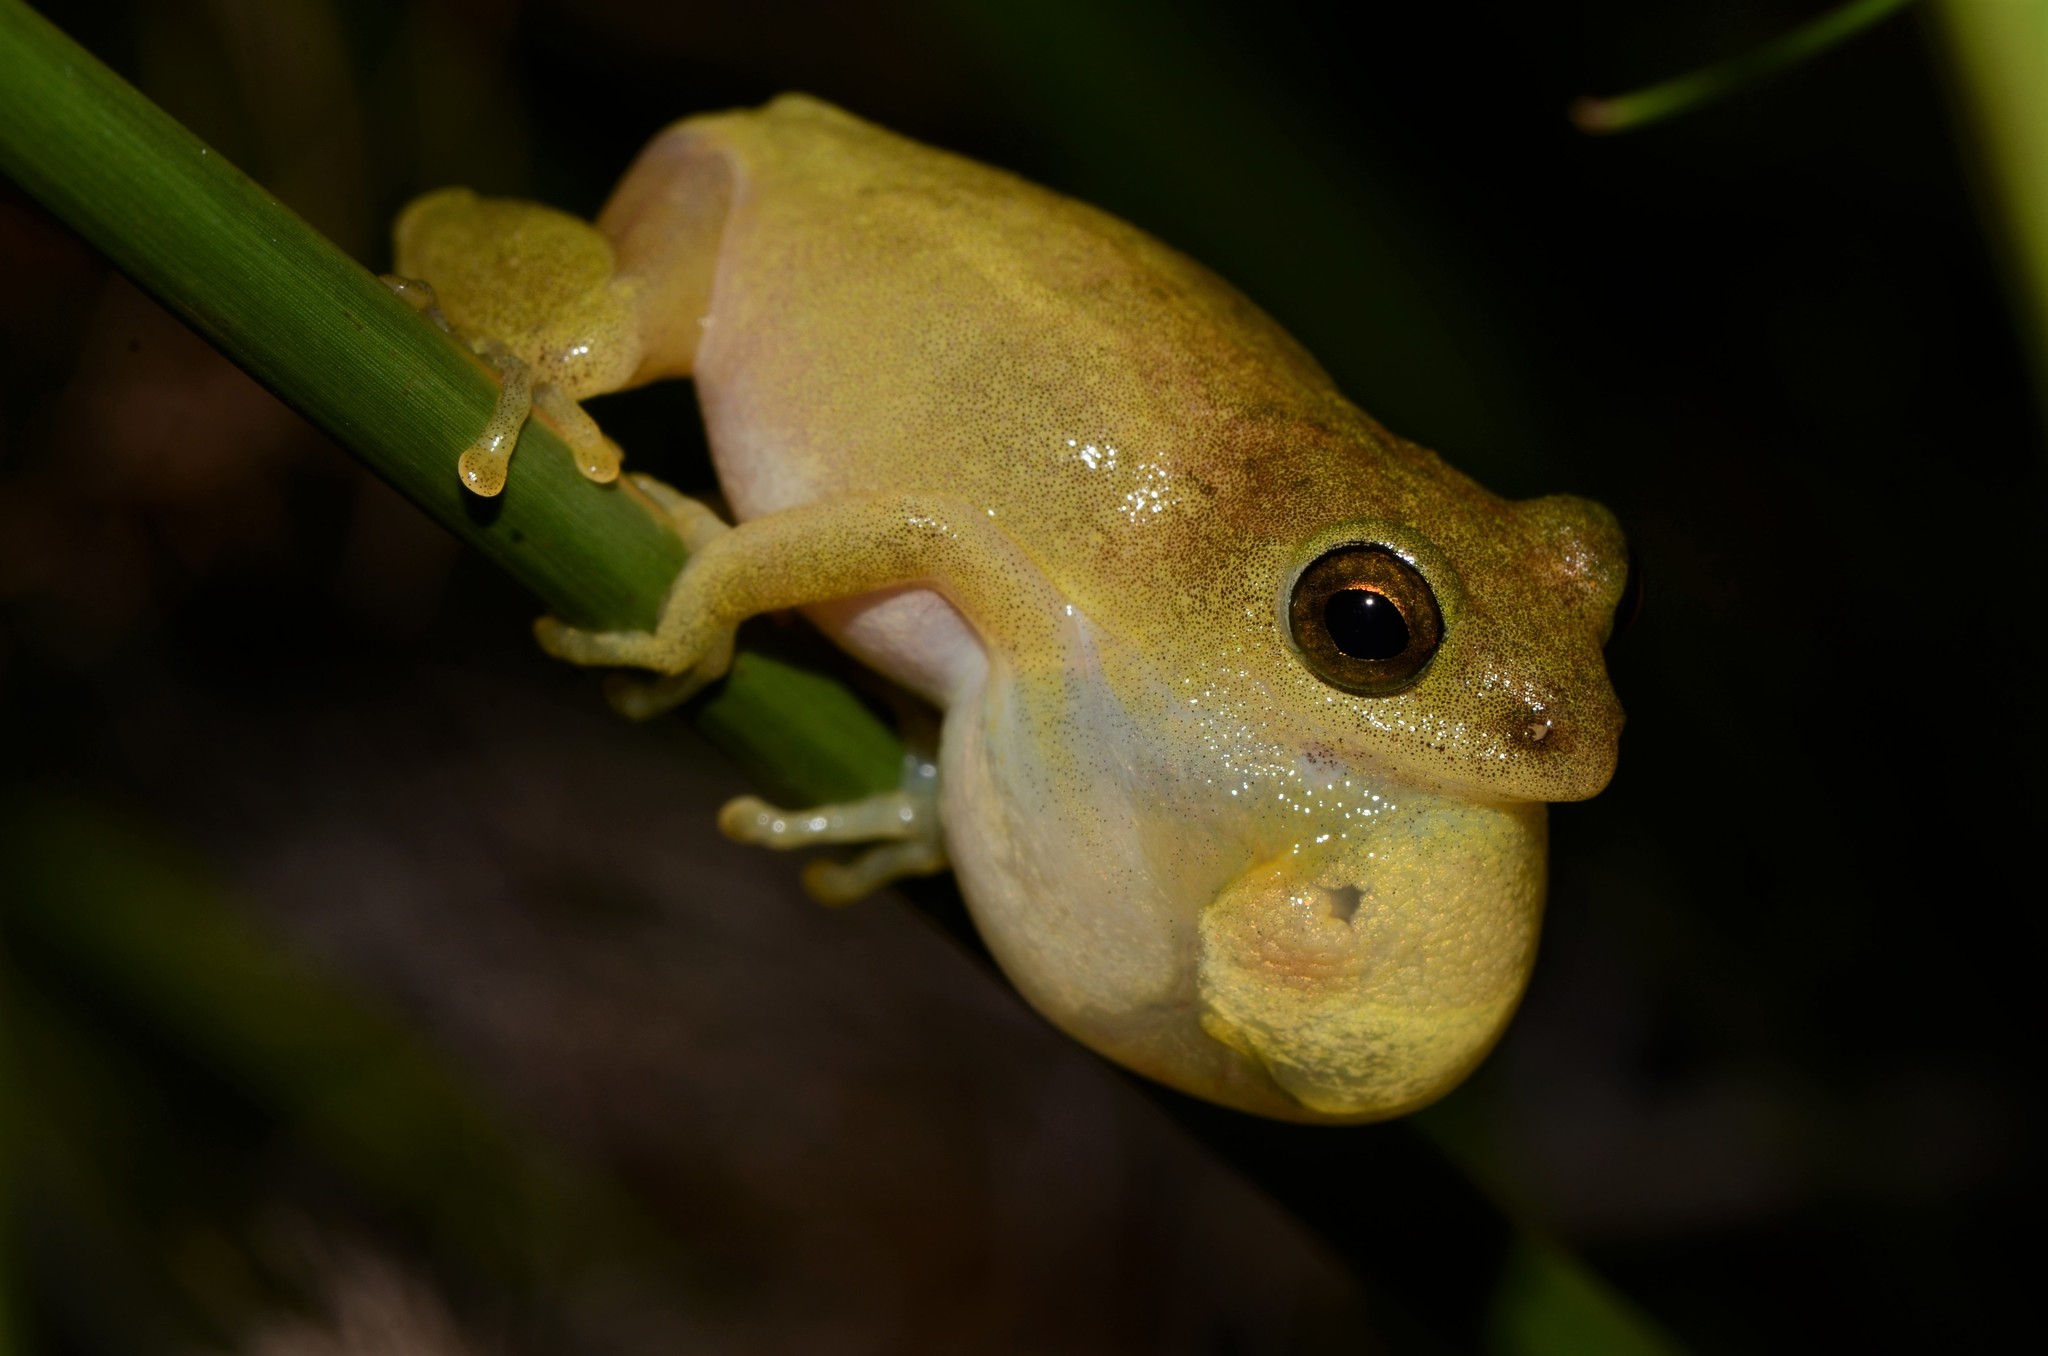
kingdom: Animalia
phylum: Chordata
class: Amphibia
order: Anura
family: Hyperoliidae
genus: Hyperolius
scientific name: Hyperolius tuberilinguis
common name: Tinker reed frog
